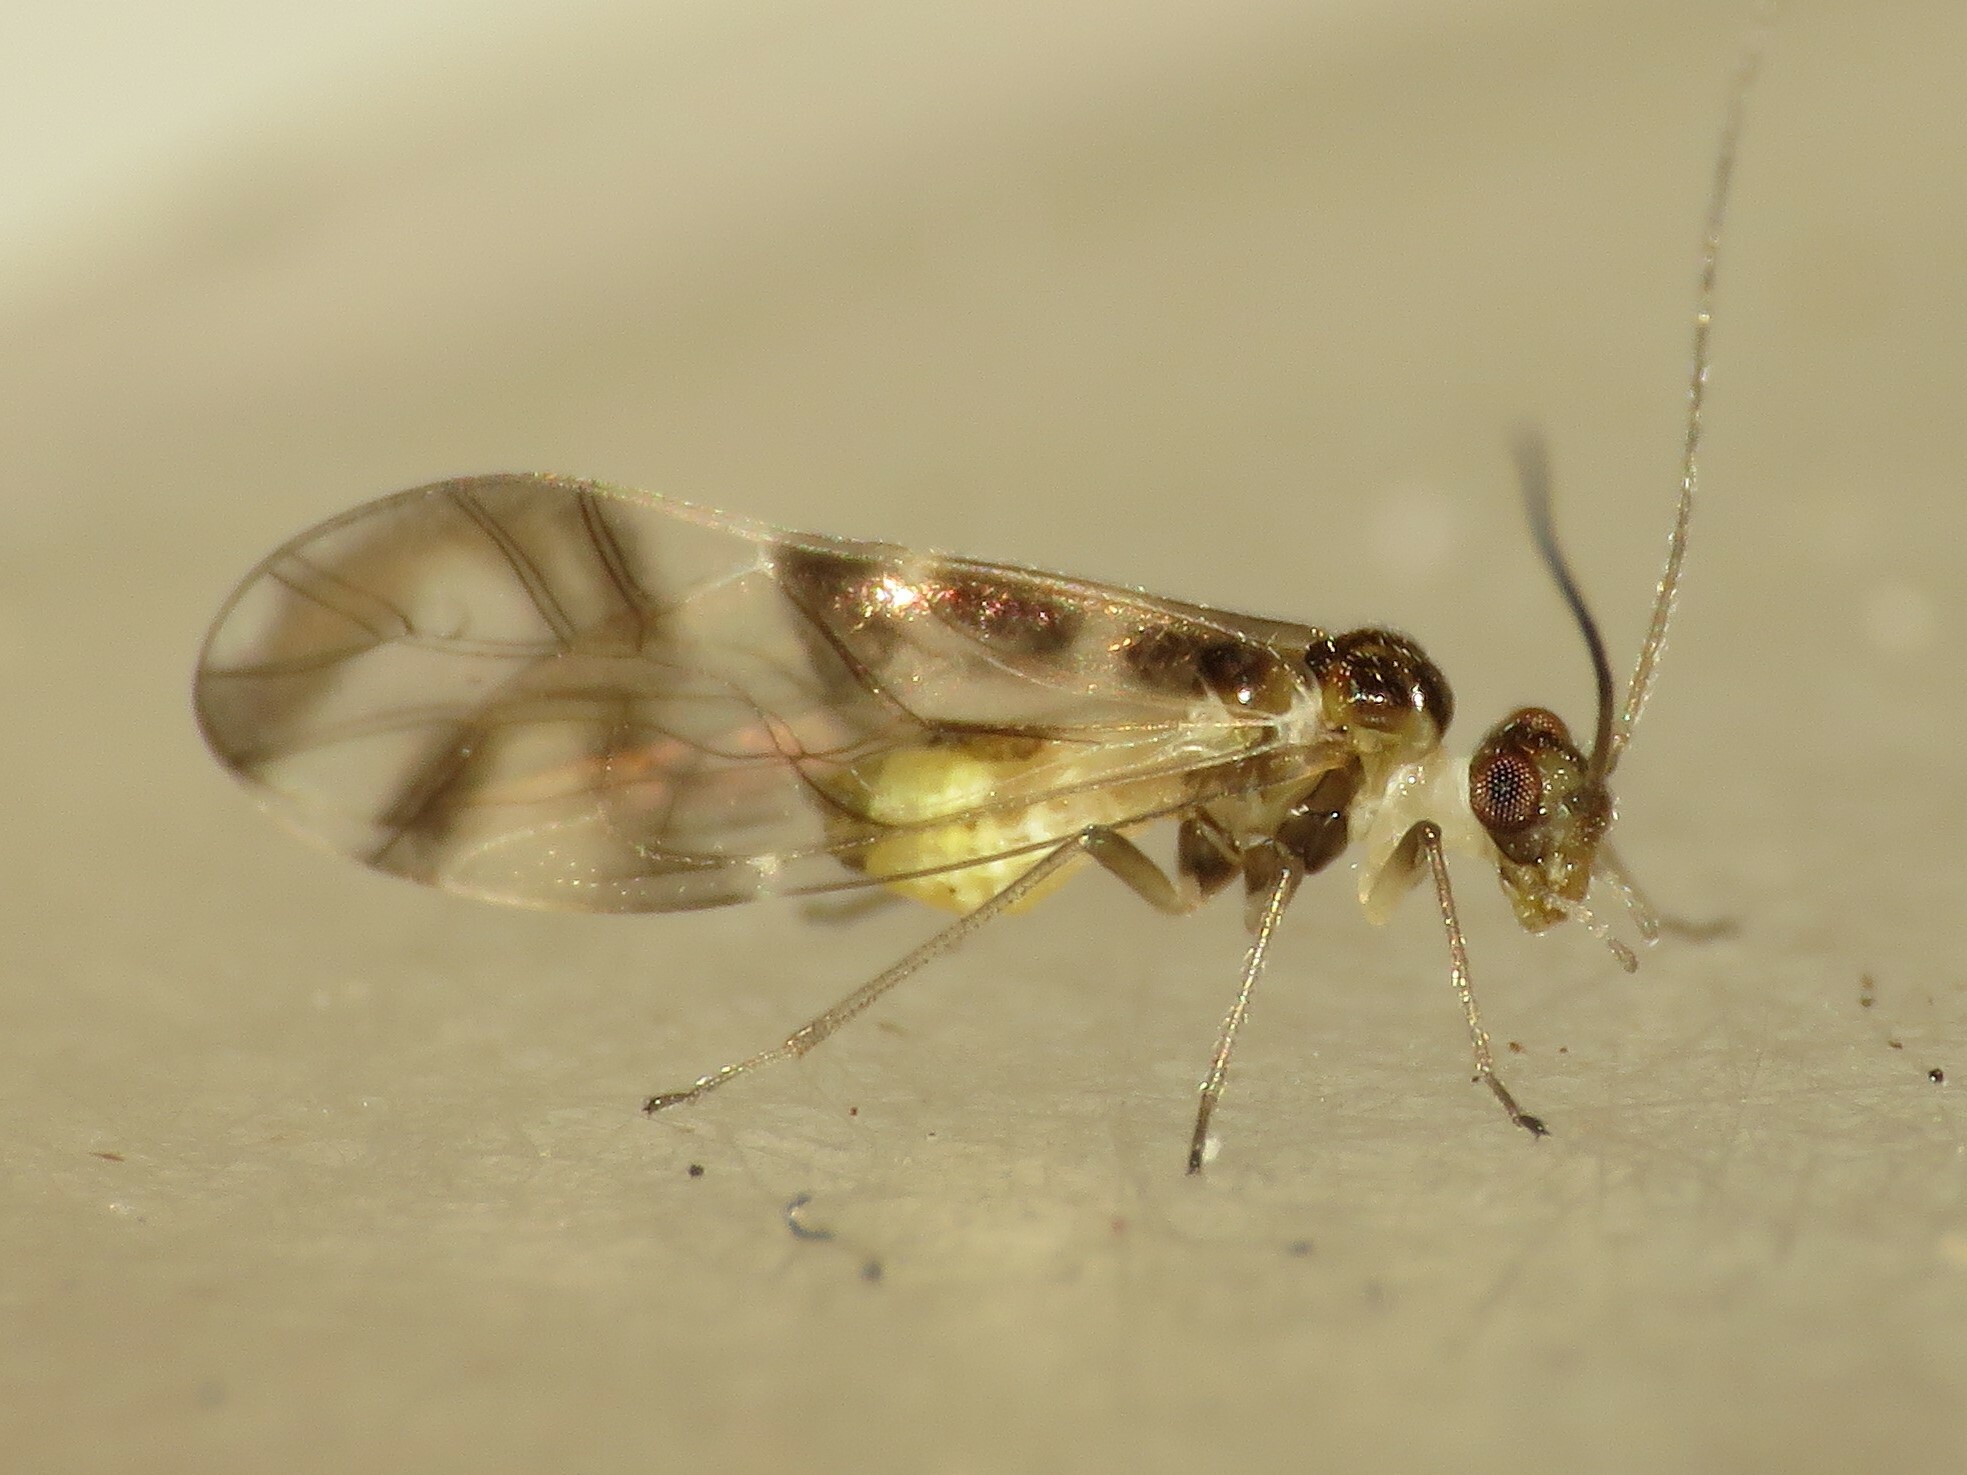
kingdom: Animalia
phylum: Arthropoda
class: Insecta
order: Psocodea
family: Stenopsocidae
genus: Graphopsocus
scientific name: Graphopsocus cruciatus
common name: Lizard bark louse
